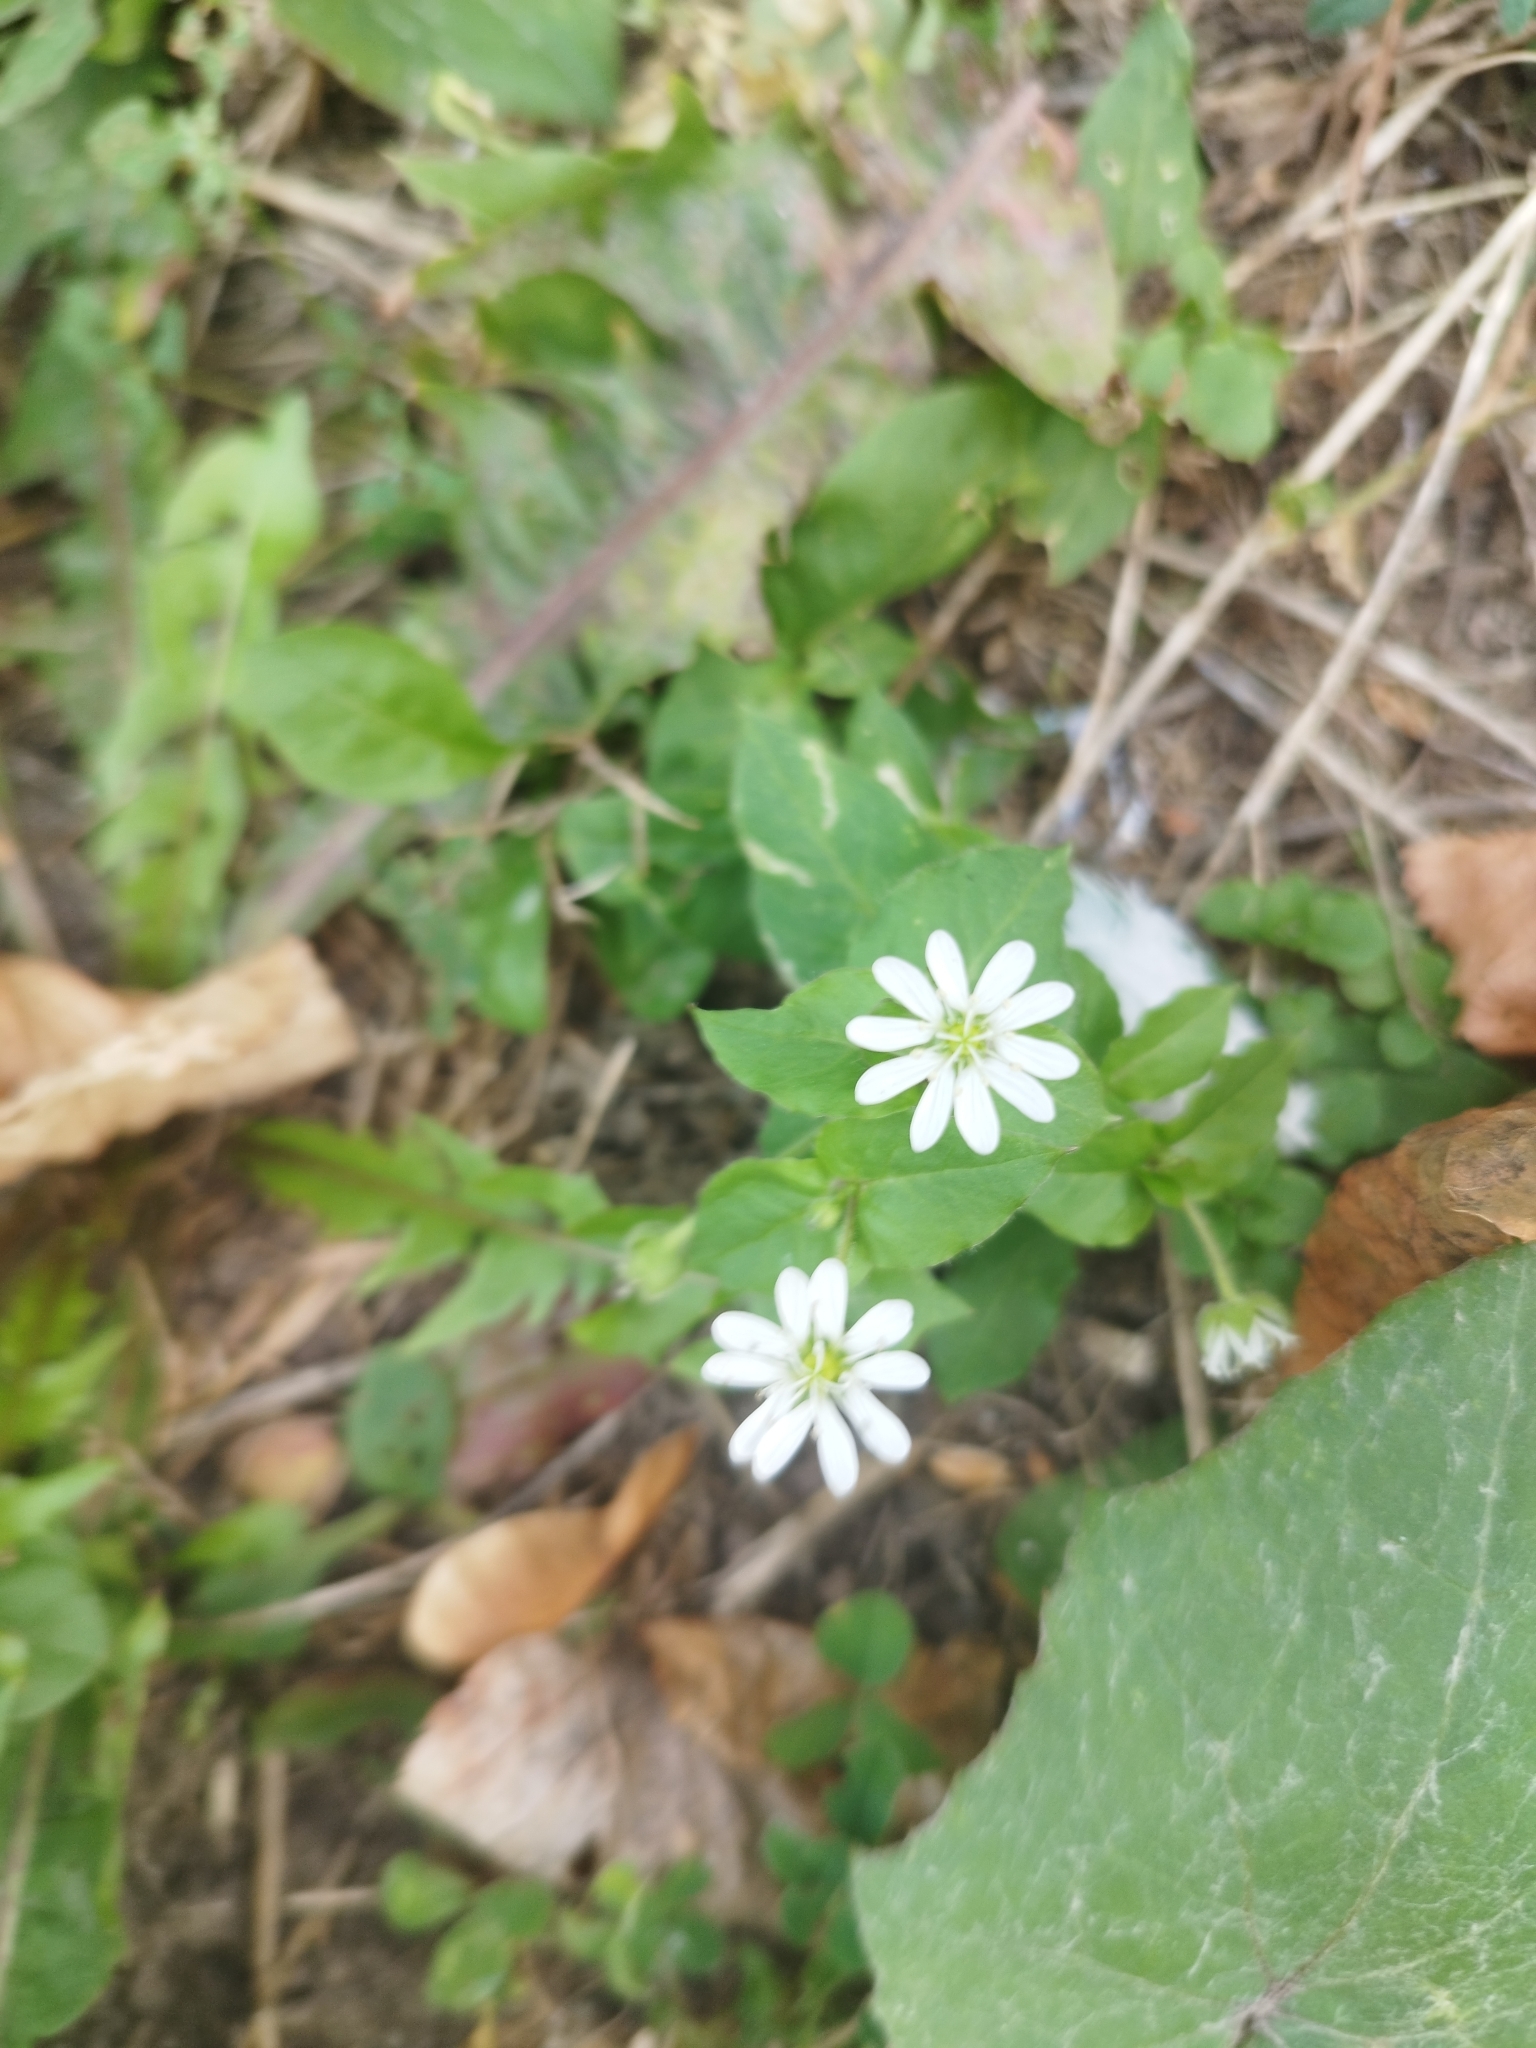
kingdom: Plantae
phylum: Tracheophyta
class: Magnoliopsida
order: Caryophyllales
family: Caryophyllaceae
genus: Stellaria
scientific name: Stellaria aquatica
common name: Water chickweed
